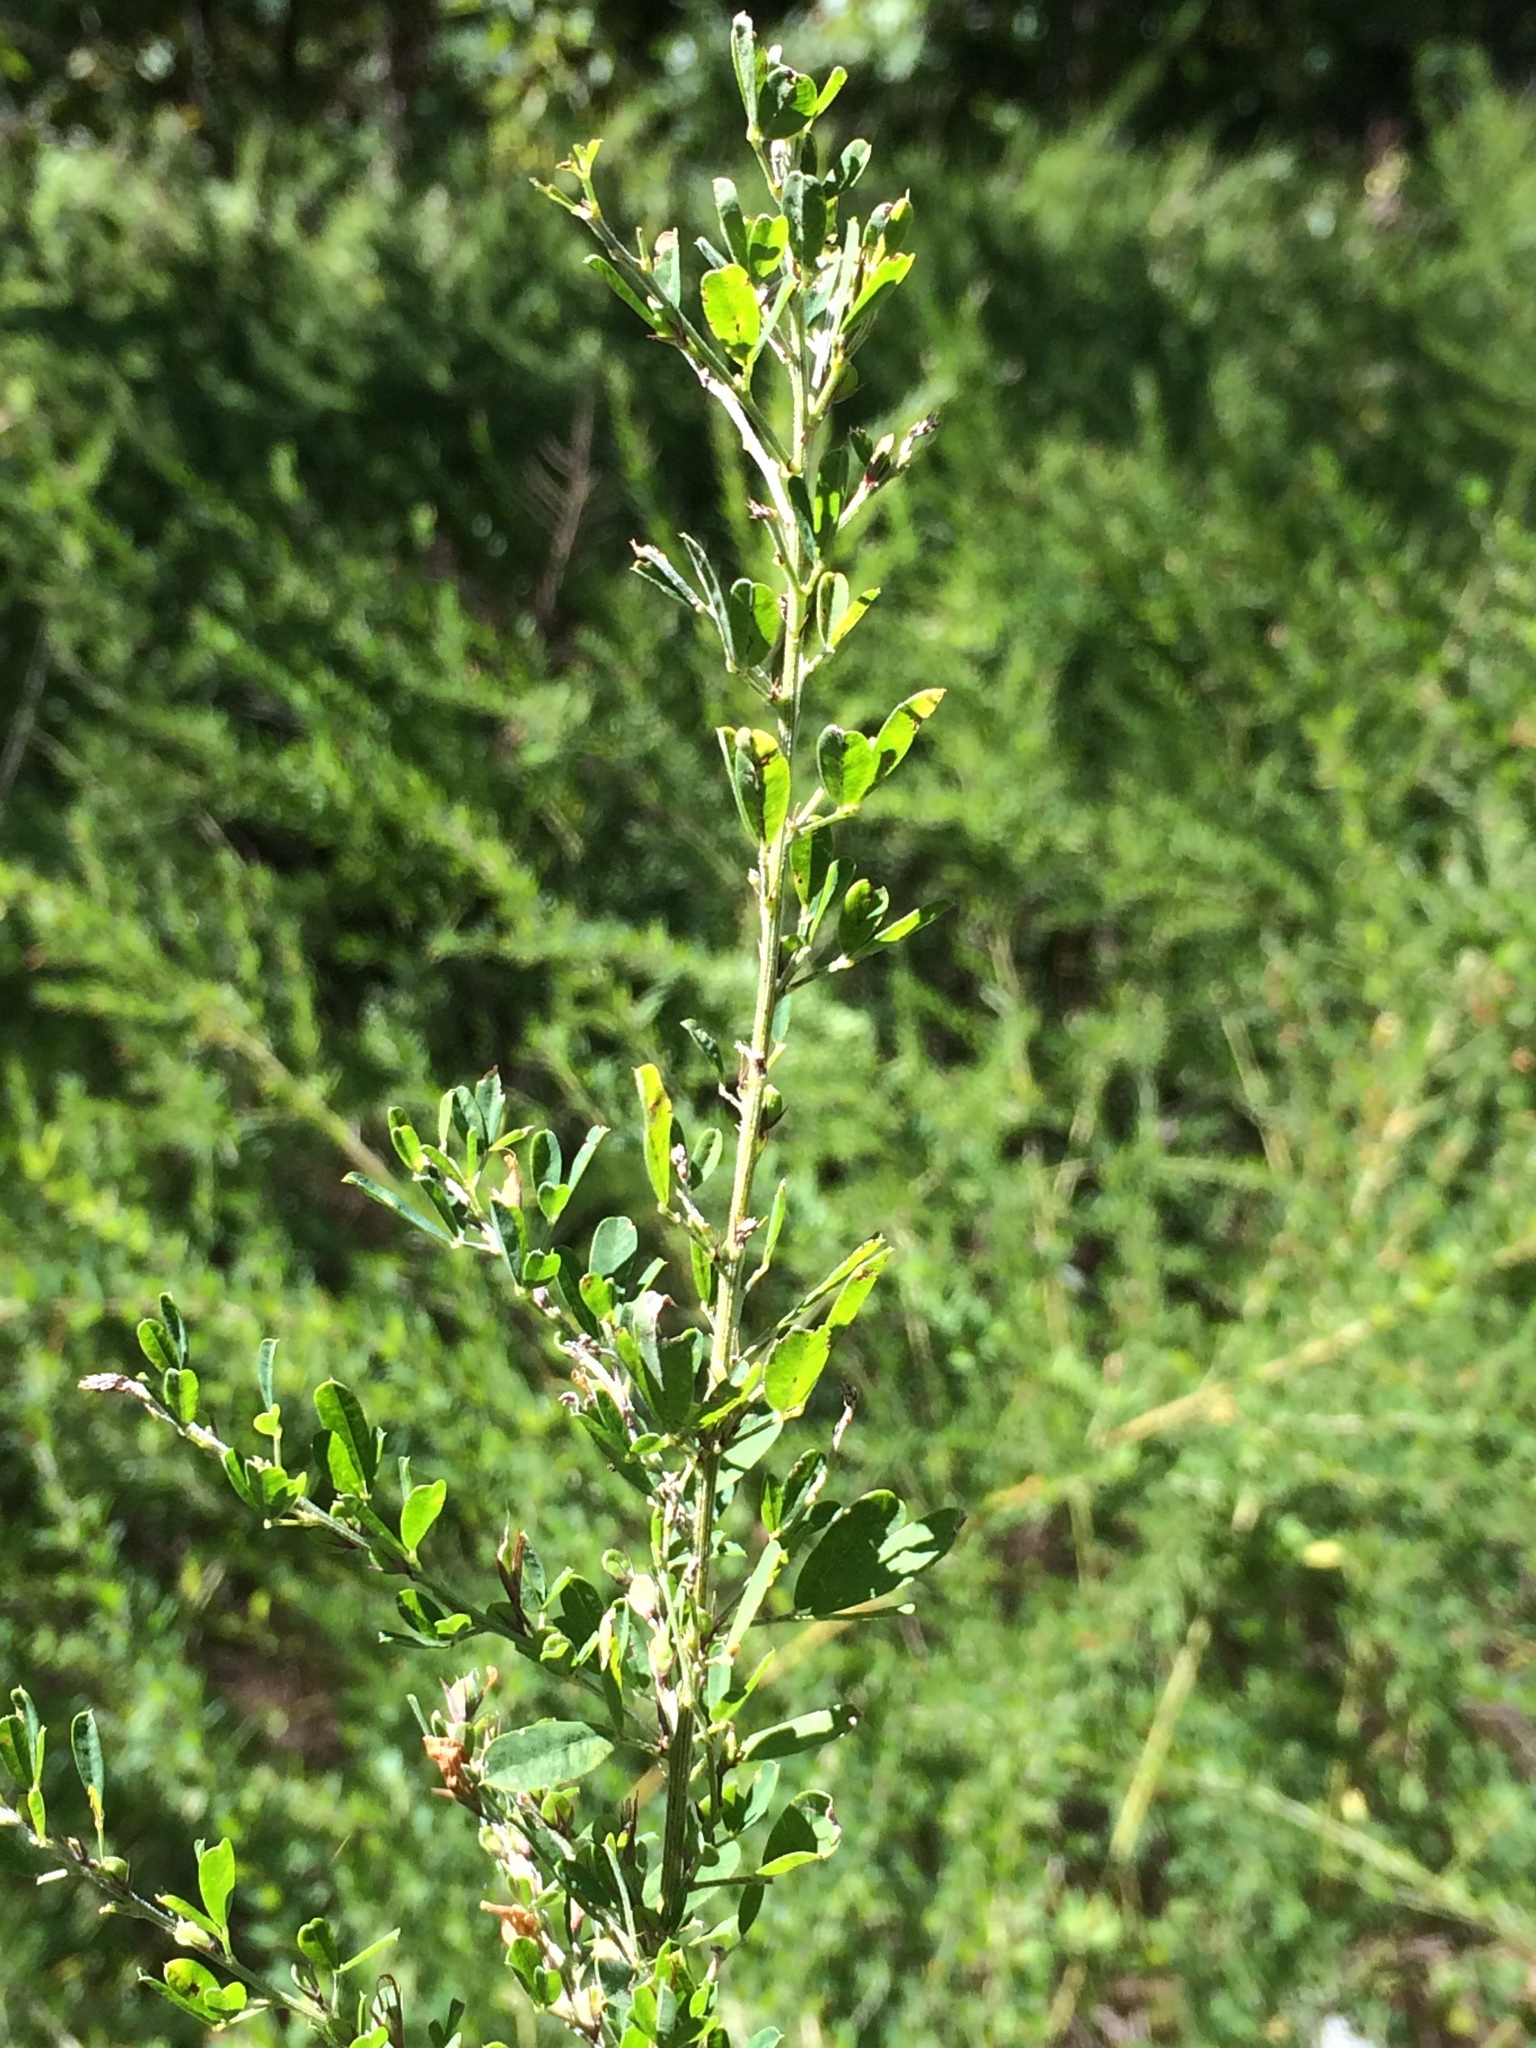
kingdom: Plantae
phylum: Tracheophyta
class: Magnoliopsida
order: Fabales
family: Fabaceae
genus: Lespedeza
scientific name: Lespedeza cuneata
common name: Chinese bush-clover
